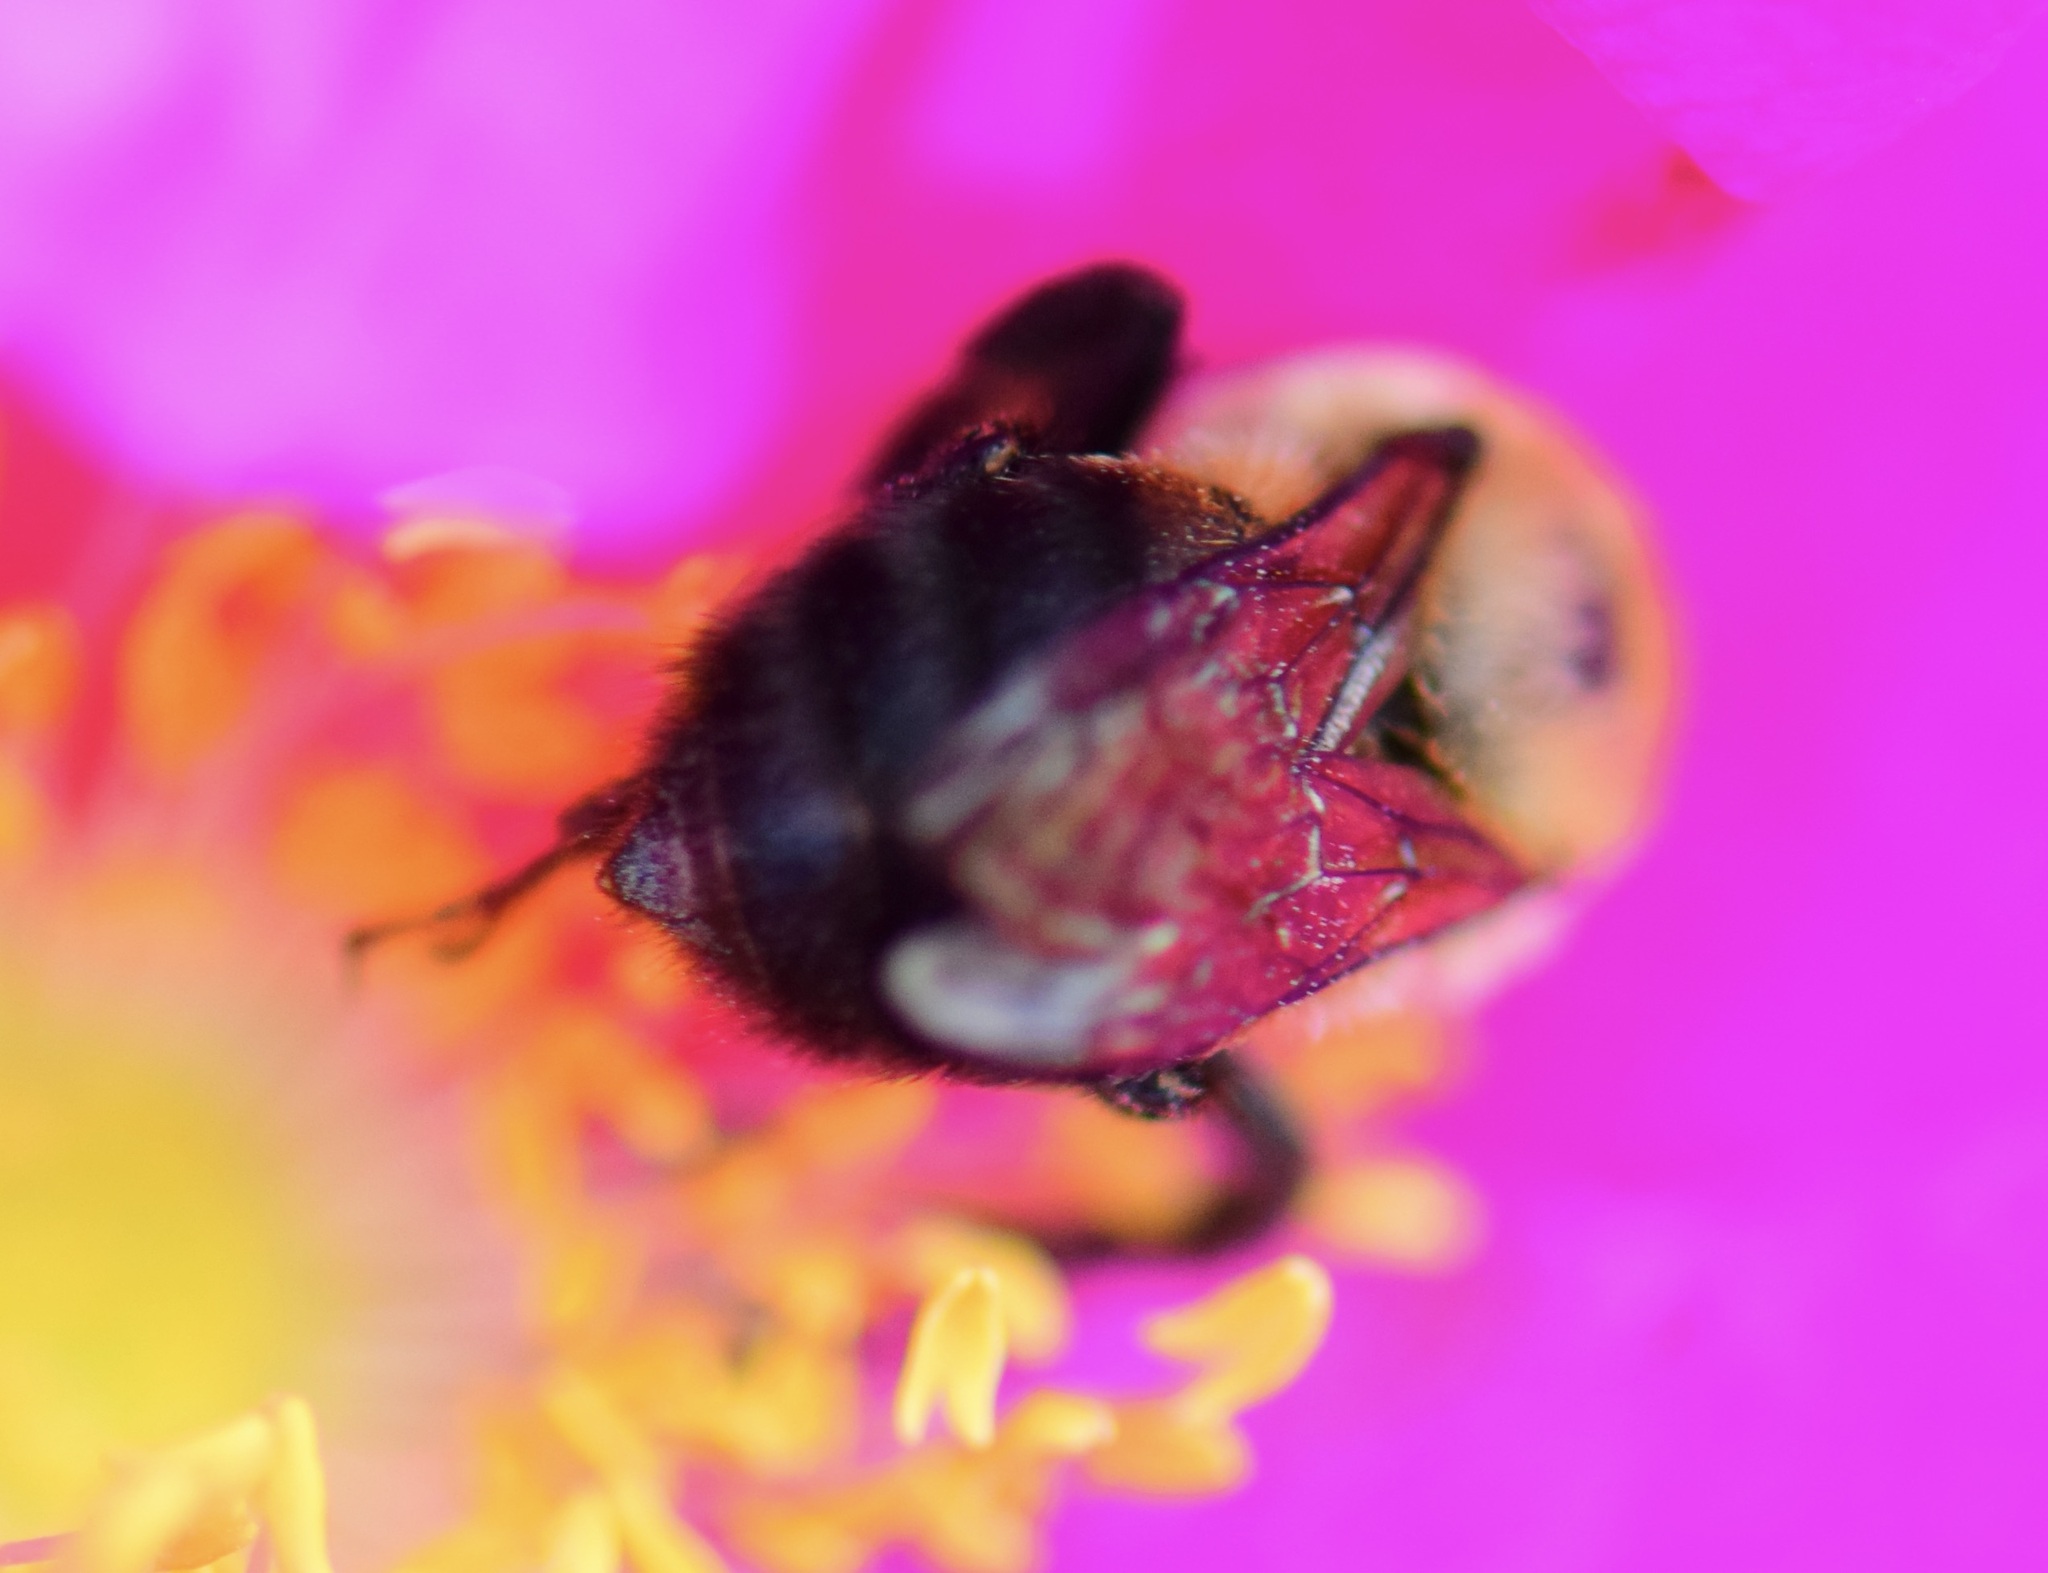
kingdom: Animalia
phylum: Arthropoda
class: Insecta
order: Hymenoptera
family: Apidae
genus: Bombus
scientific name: Bombus griseocollis
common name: Brown-belted bumble bee
